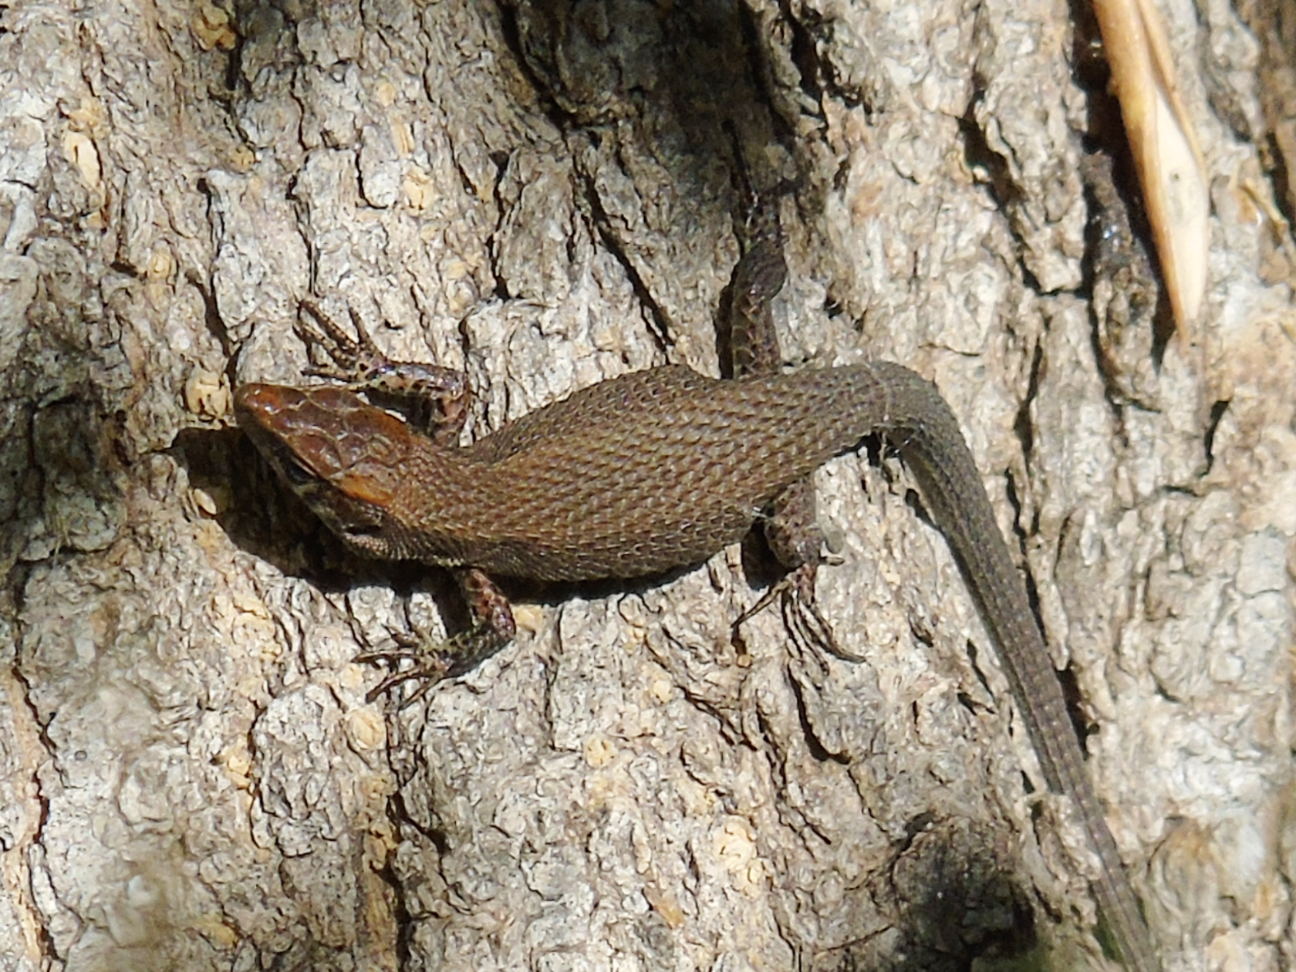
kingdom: Animalia
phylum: Chordata
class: Squamata
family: Lacertidae
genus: Algyroides
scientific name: Algyroides moreoticus
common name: Greek algyroides
